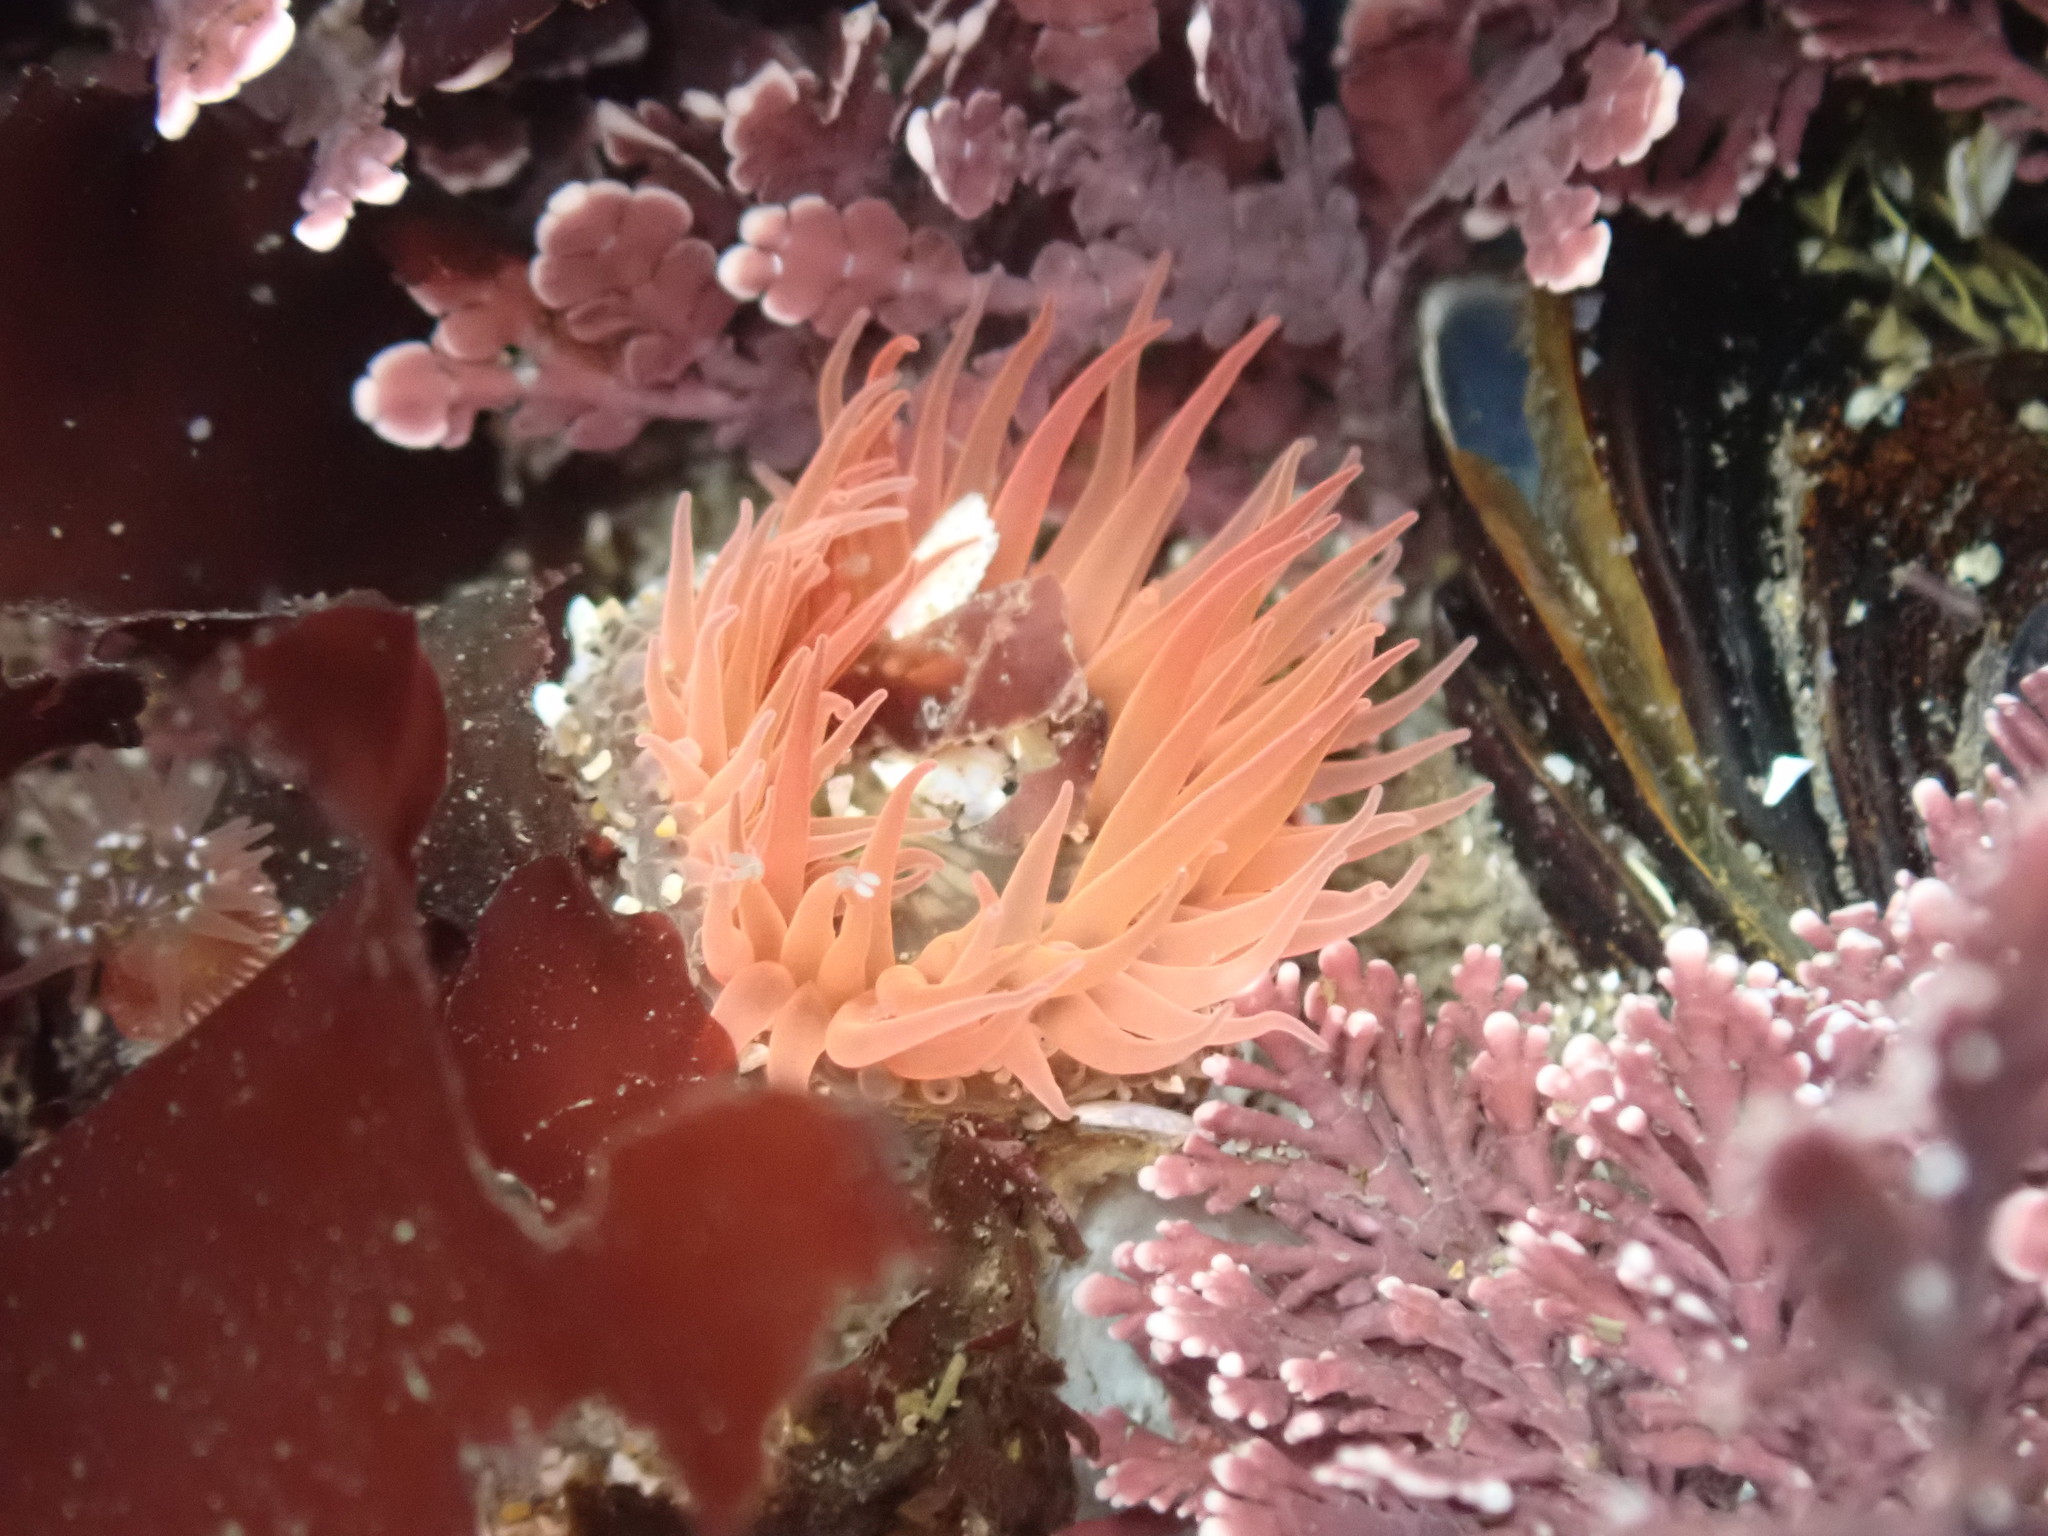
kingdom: Animalia
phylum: Cnidaria
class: Anthozoa
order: Actiniaria
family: Actiniidae
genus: Anthopleura
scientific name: Anthopleura artemisia
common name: Buried sea anemone
